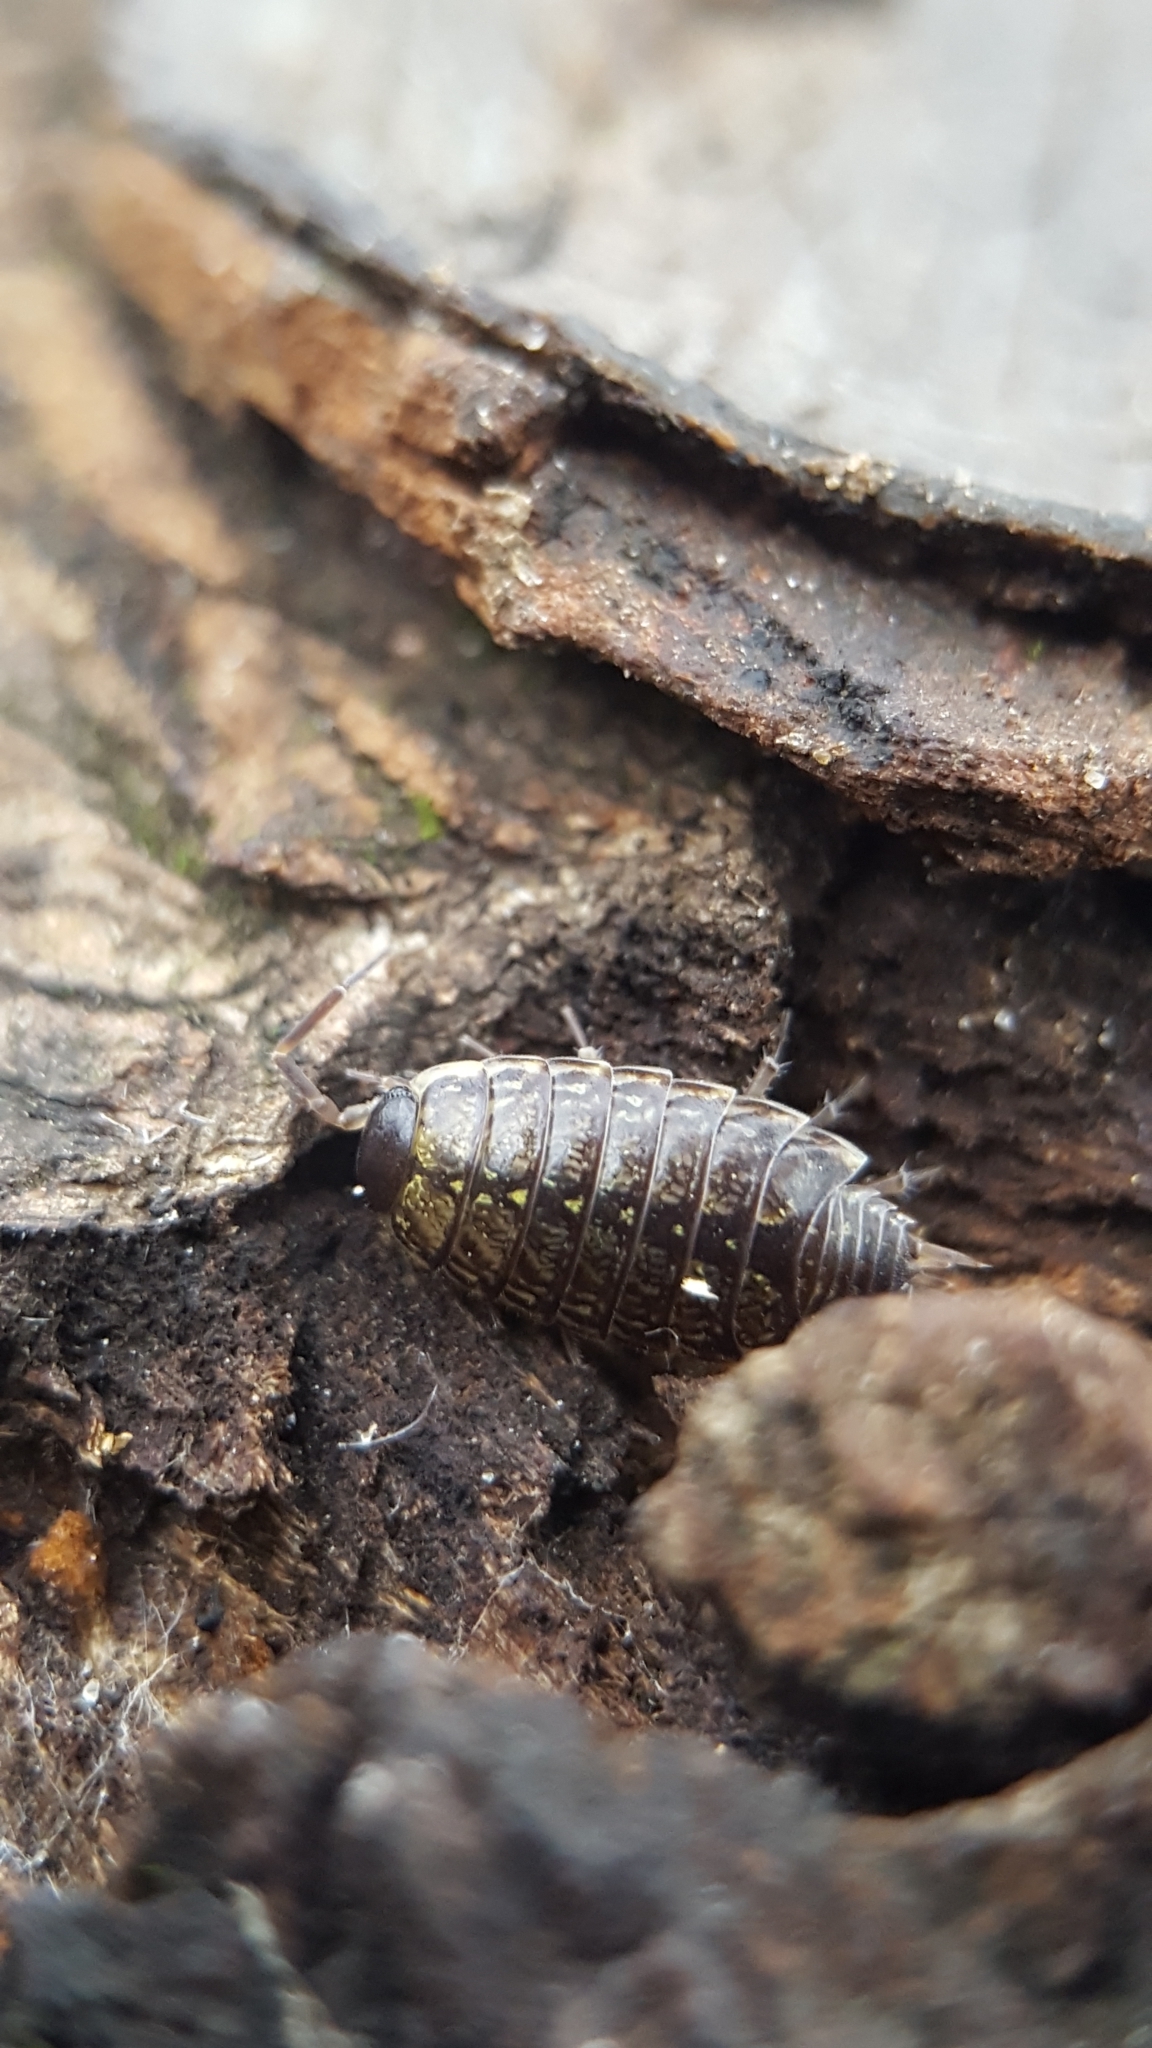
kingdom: Animalia
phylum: Arthropoda
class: Malacostraca
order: Isopoda
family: Philosciidae
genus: Philoscia
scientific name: Philoscia muscorum
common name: Common striped woodlouse
